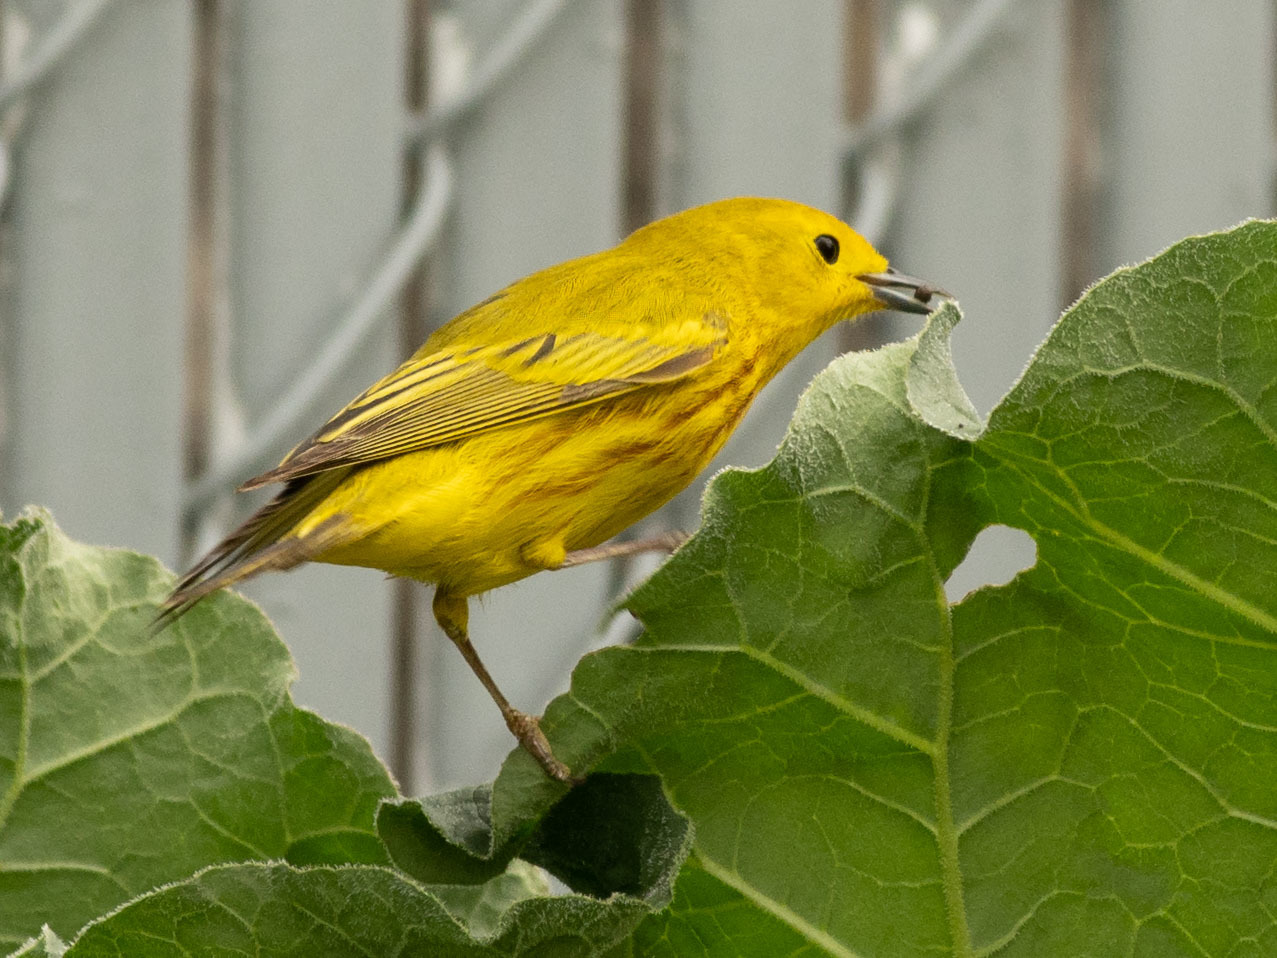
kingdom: Animalia
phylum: Chordata
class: Aves
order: Passeriformes
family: Parulidae
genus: Setophaga
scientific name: Setophaga petechia
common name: Yellow warbler
